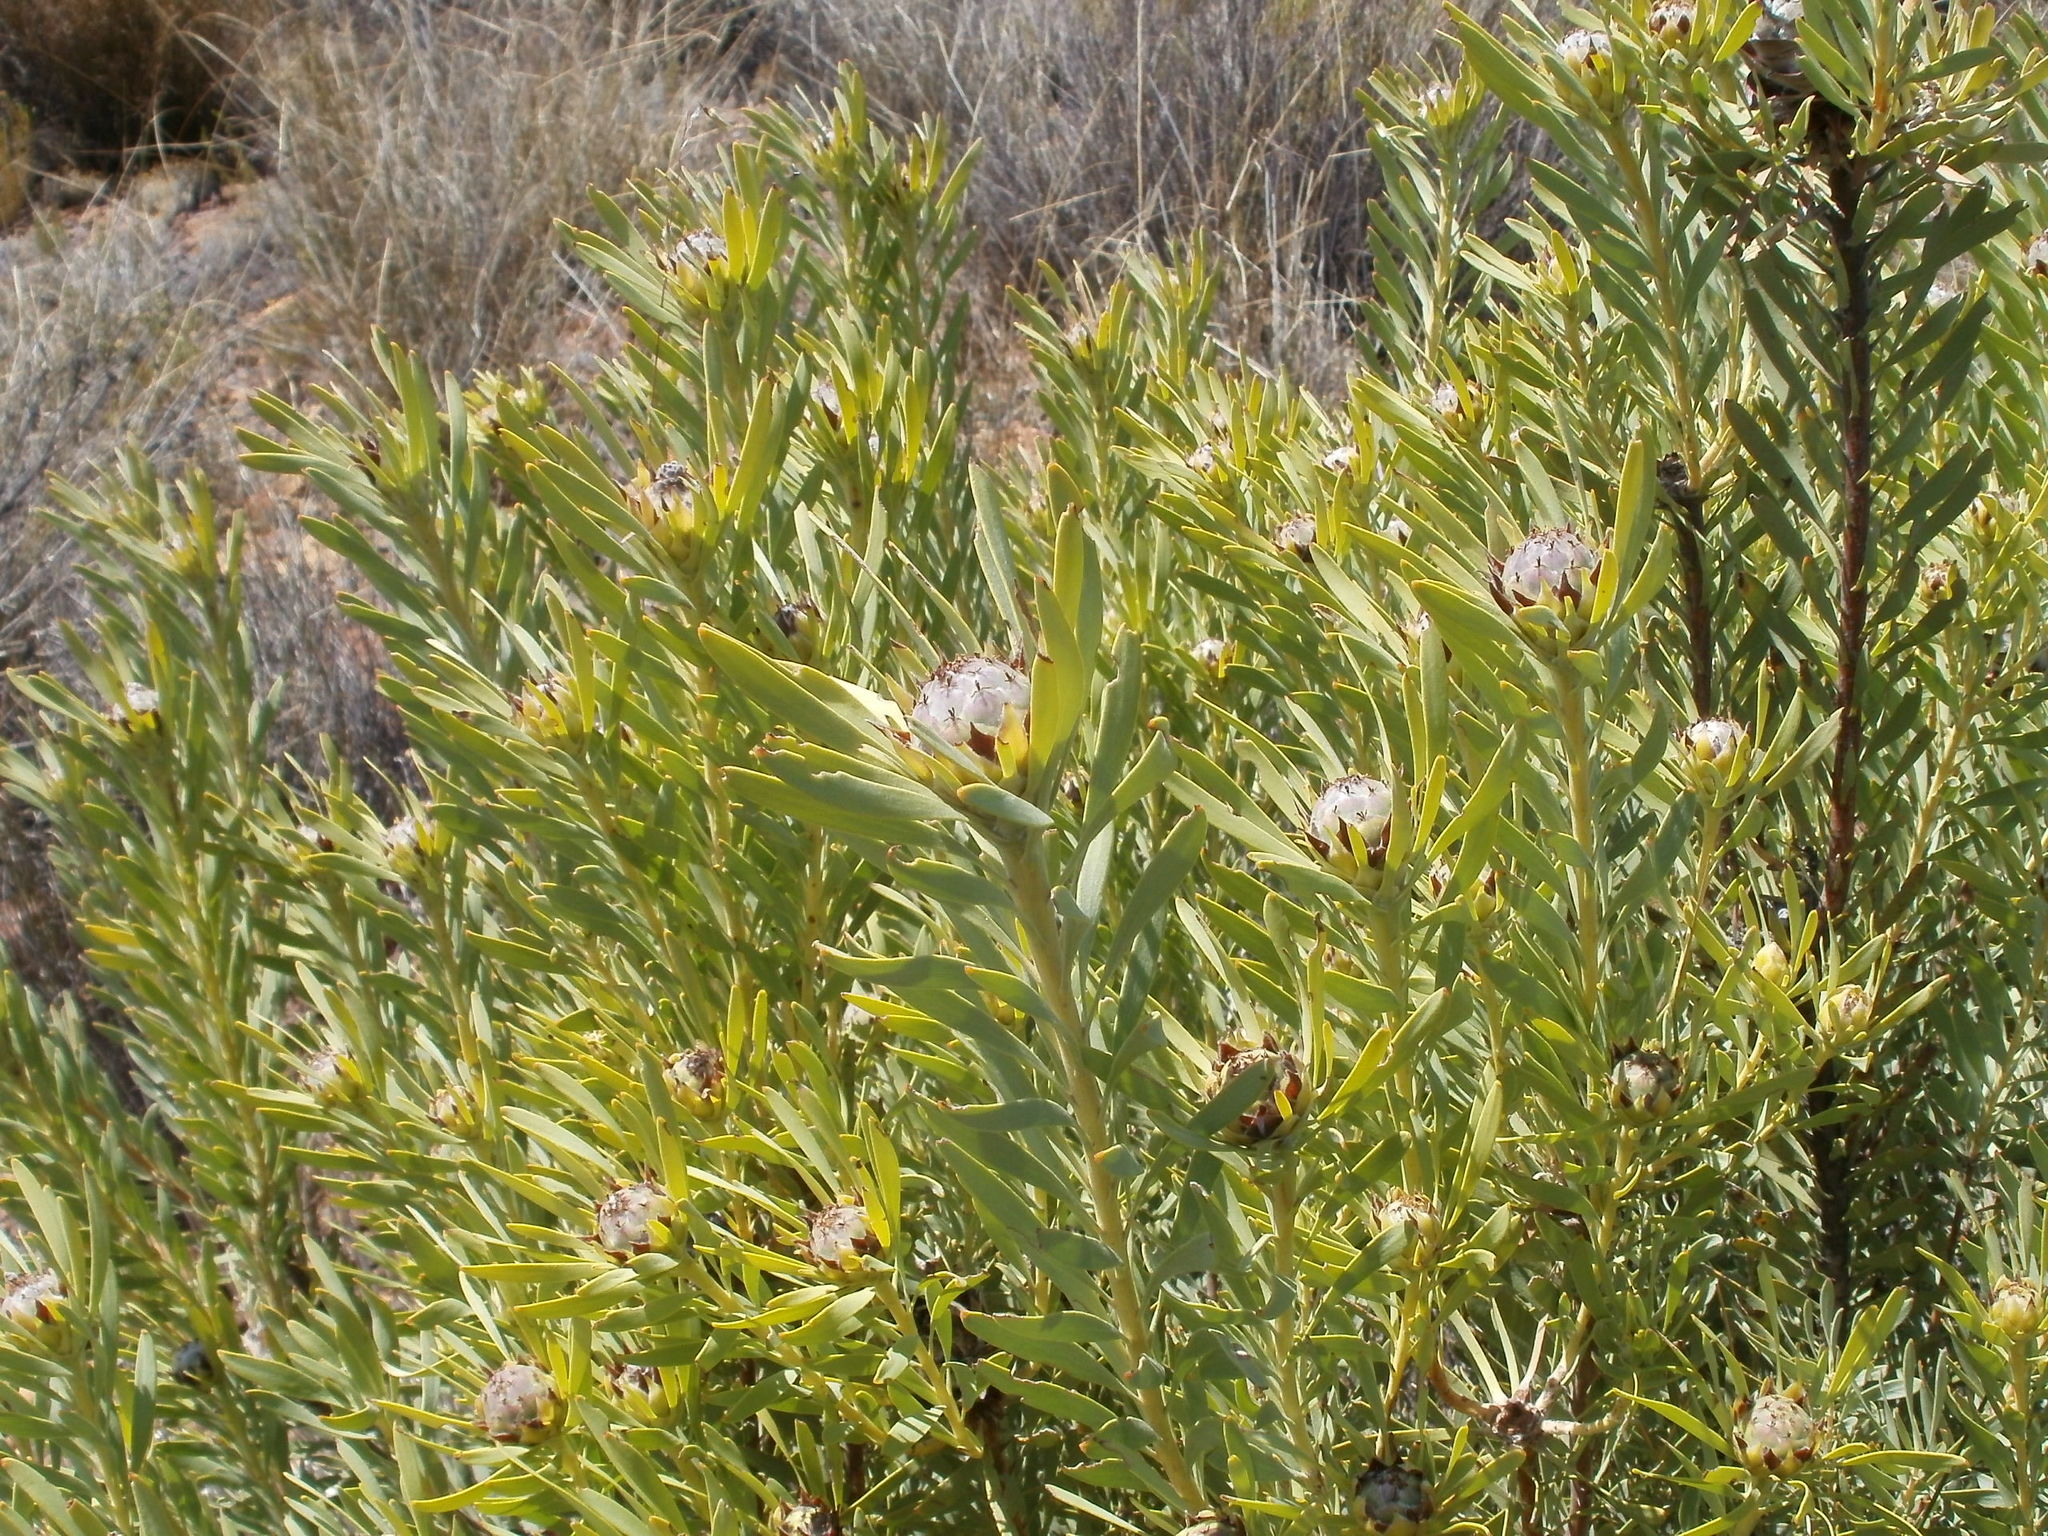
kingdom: Plantae
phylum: Tracheophyta
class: Magnoliopsida
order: Proteales
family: Proteaceae
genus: Leucadendron
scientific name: Leucadendron pubescens
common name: Grey conebush
